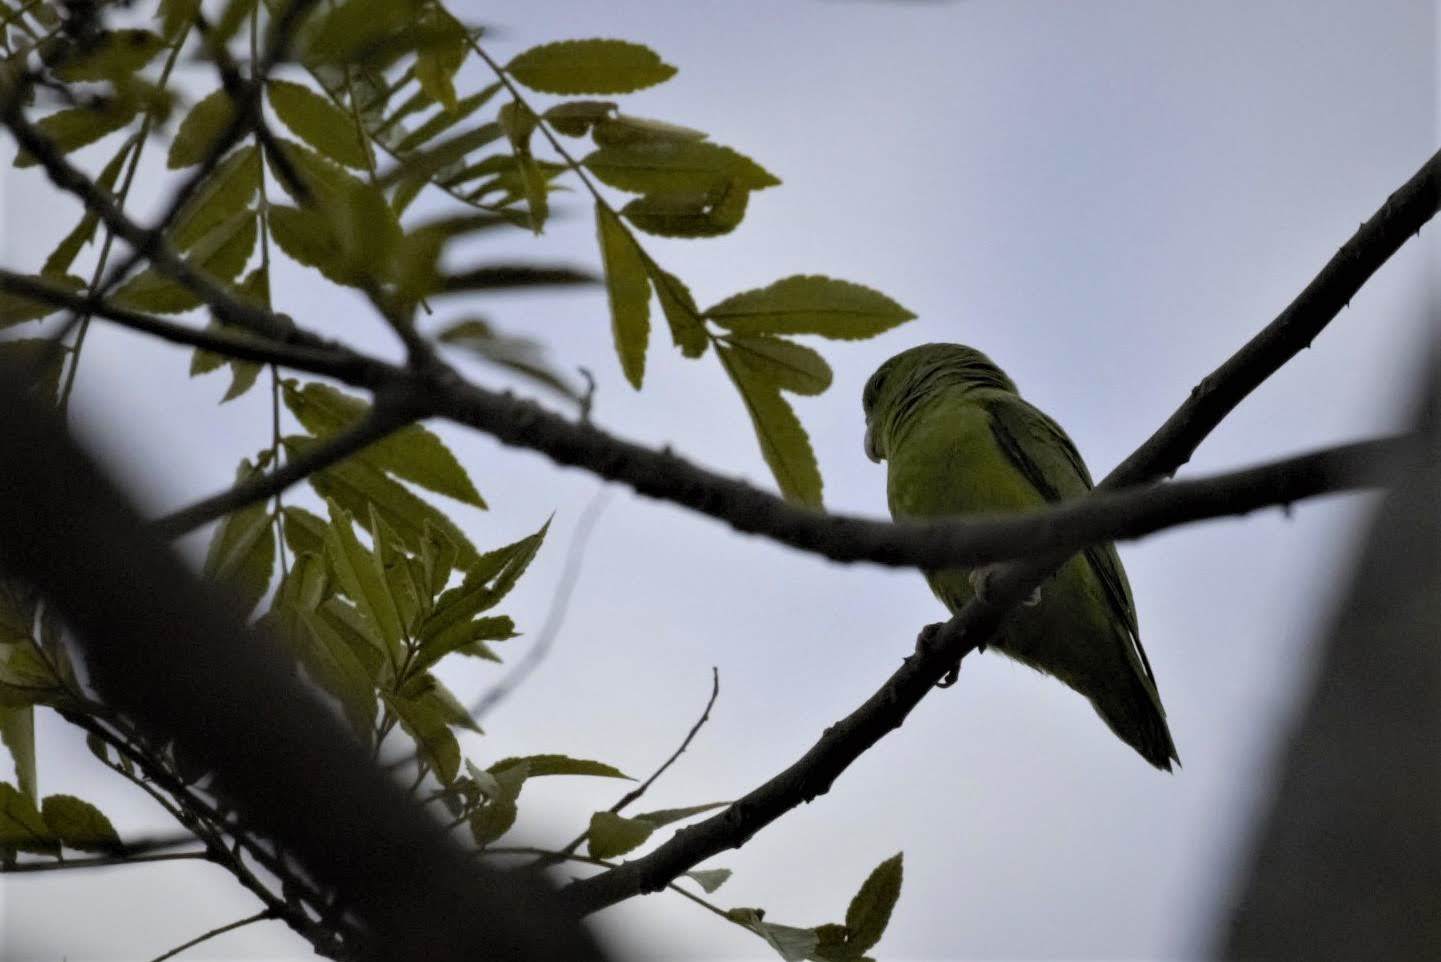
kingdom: Animalia
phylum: Chordata
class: Aves
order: Psittaciformes
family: Psittacidae
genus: Forpus
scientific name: Forpus conspicillatus
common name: Spectacled parrotlet
